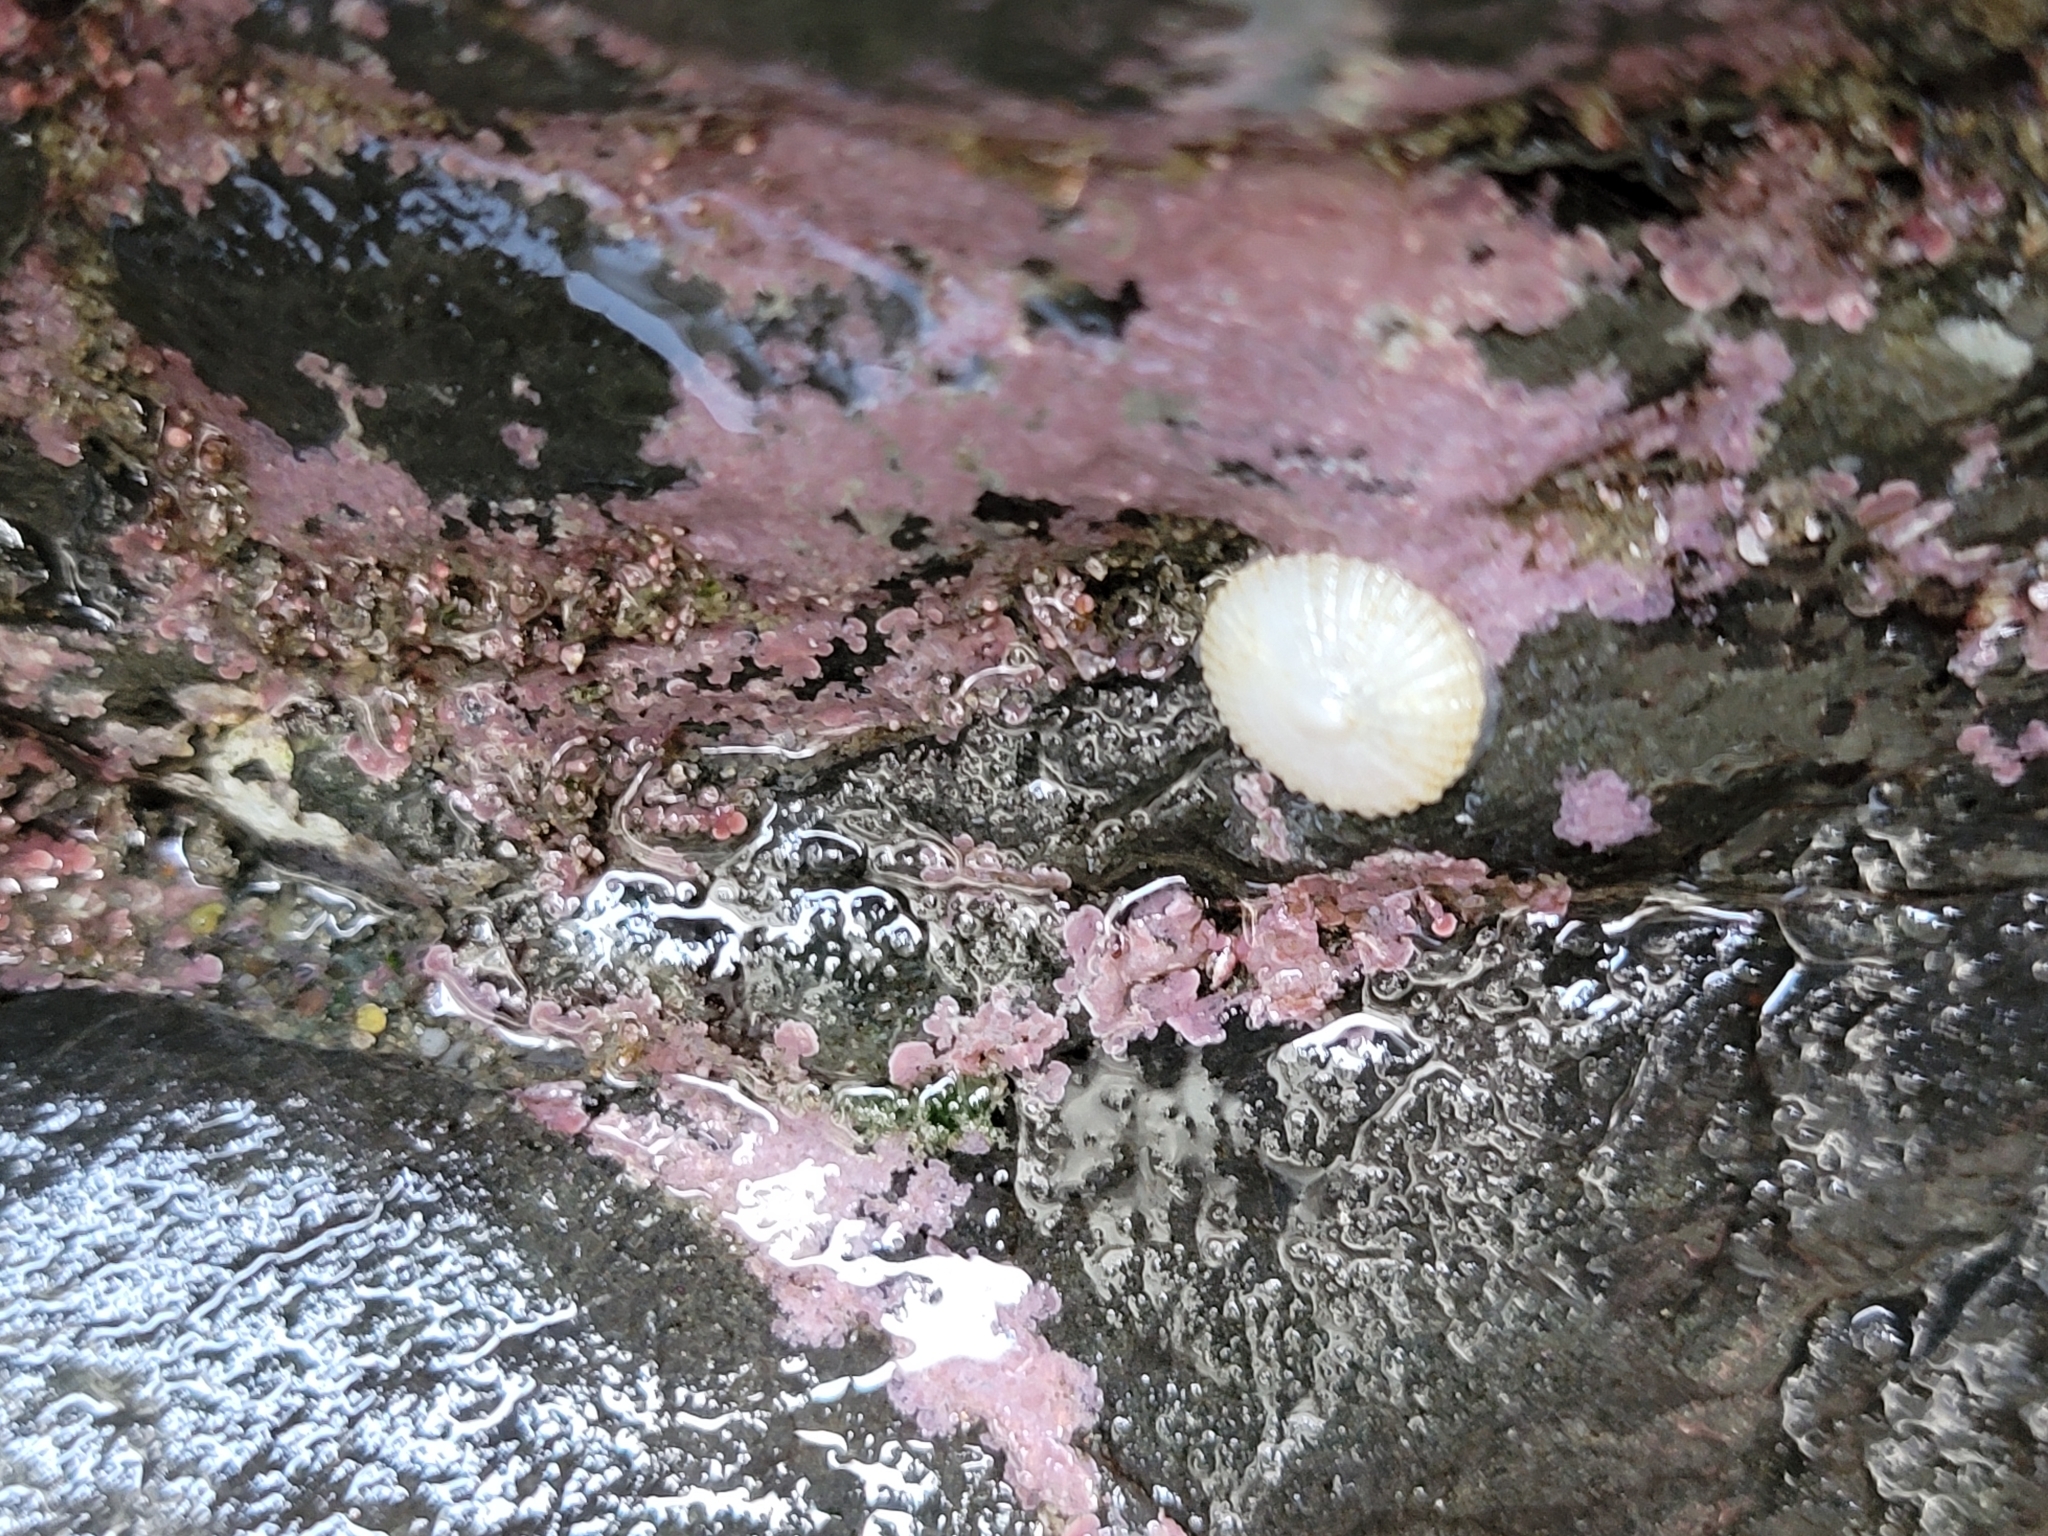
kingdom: Animalia
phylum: Mollusca
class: Gastropoda
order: Ellobiida
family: Trimusculidae
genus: Trimusculus
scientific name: Trimusculus reticulatus
